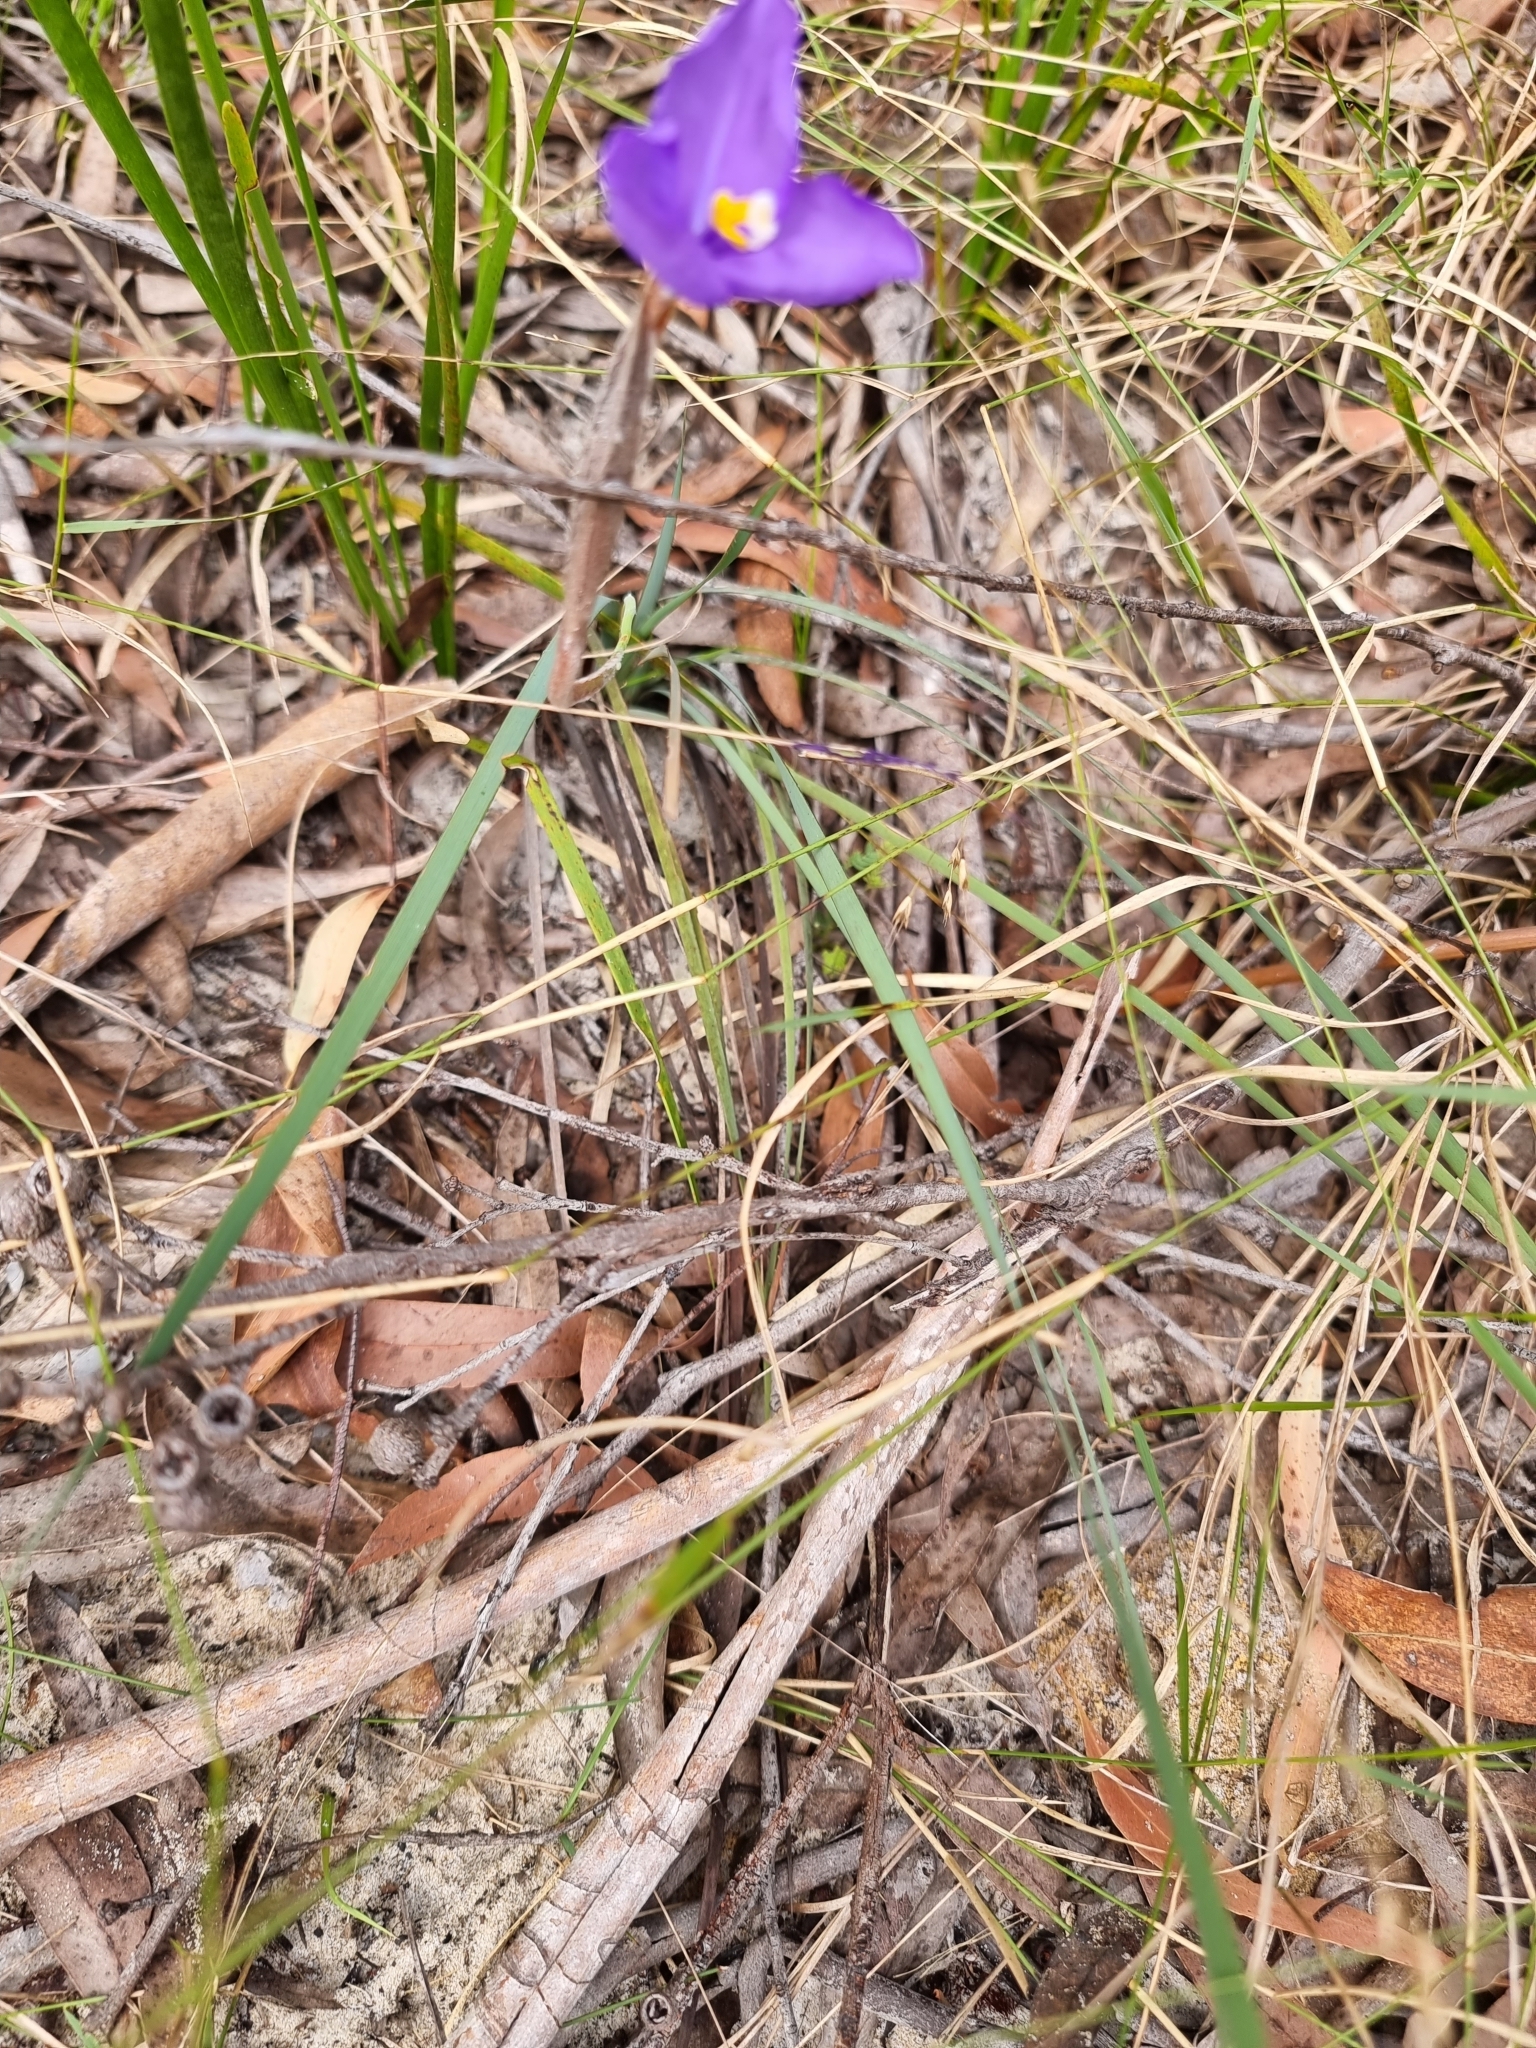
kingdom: Plantae
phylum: Tracheophyta
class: Liliopsida
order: Asparagales
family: Iridaceae
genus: Patersonia
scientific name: Patersonia sericea
